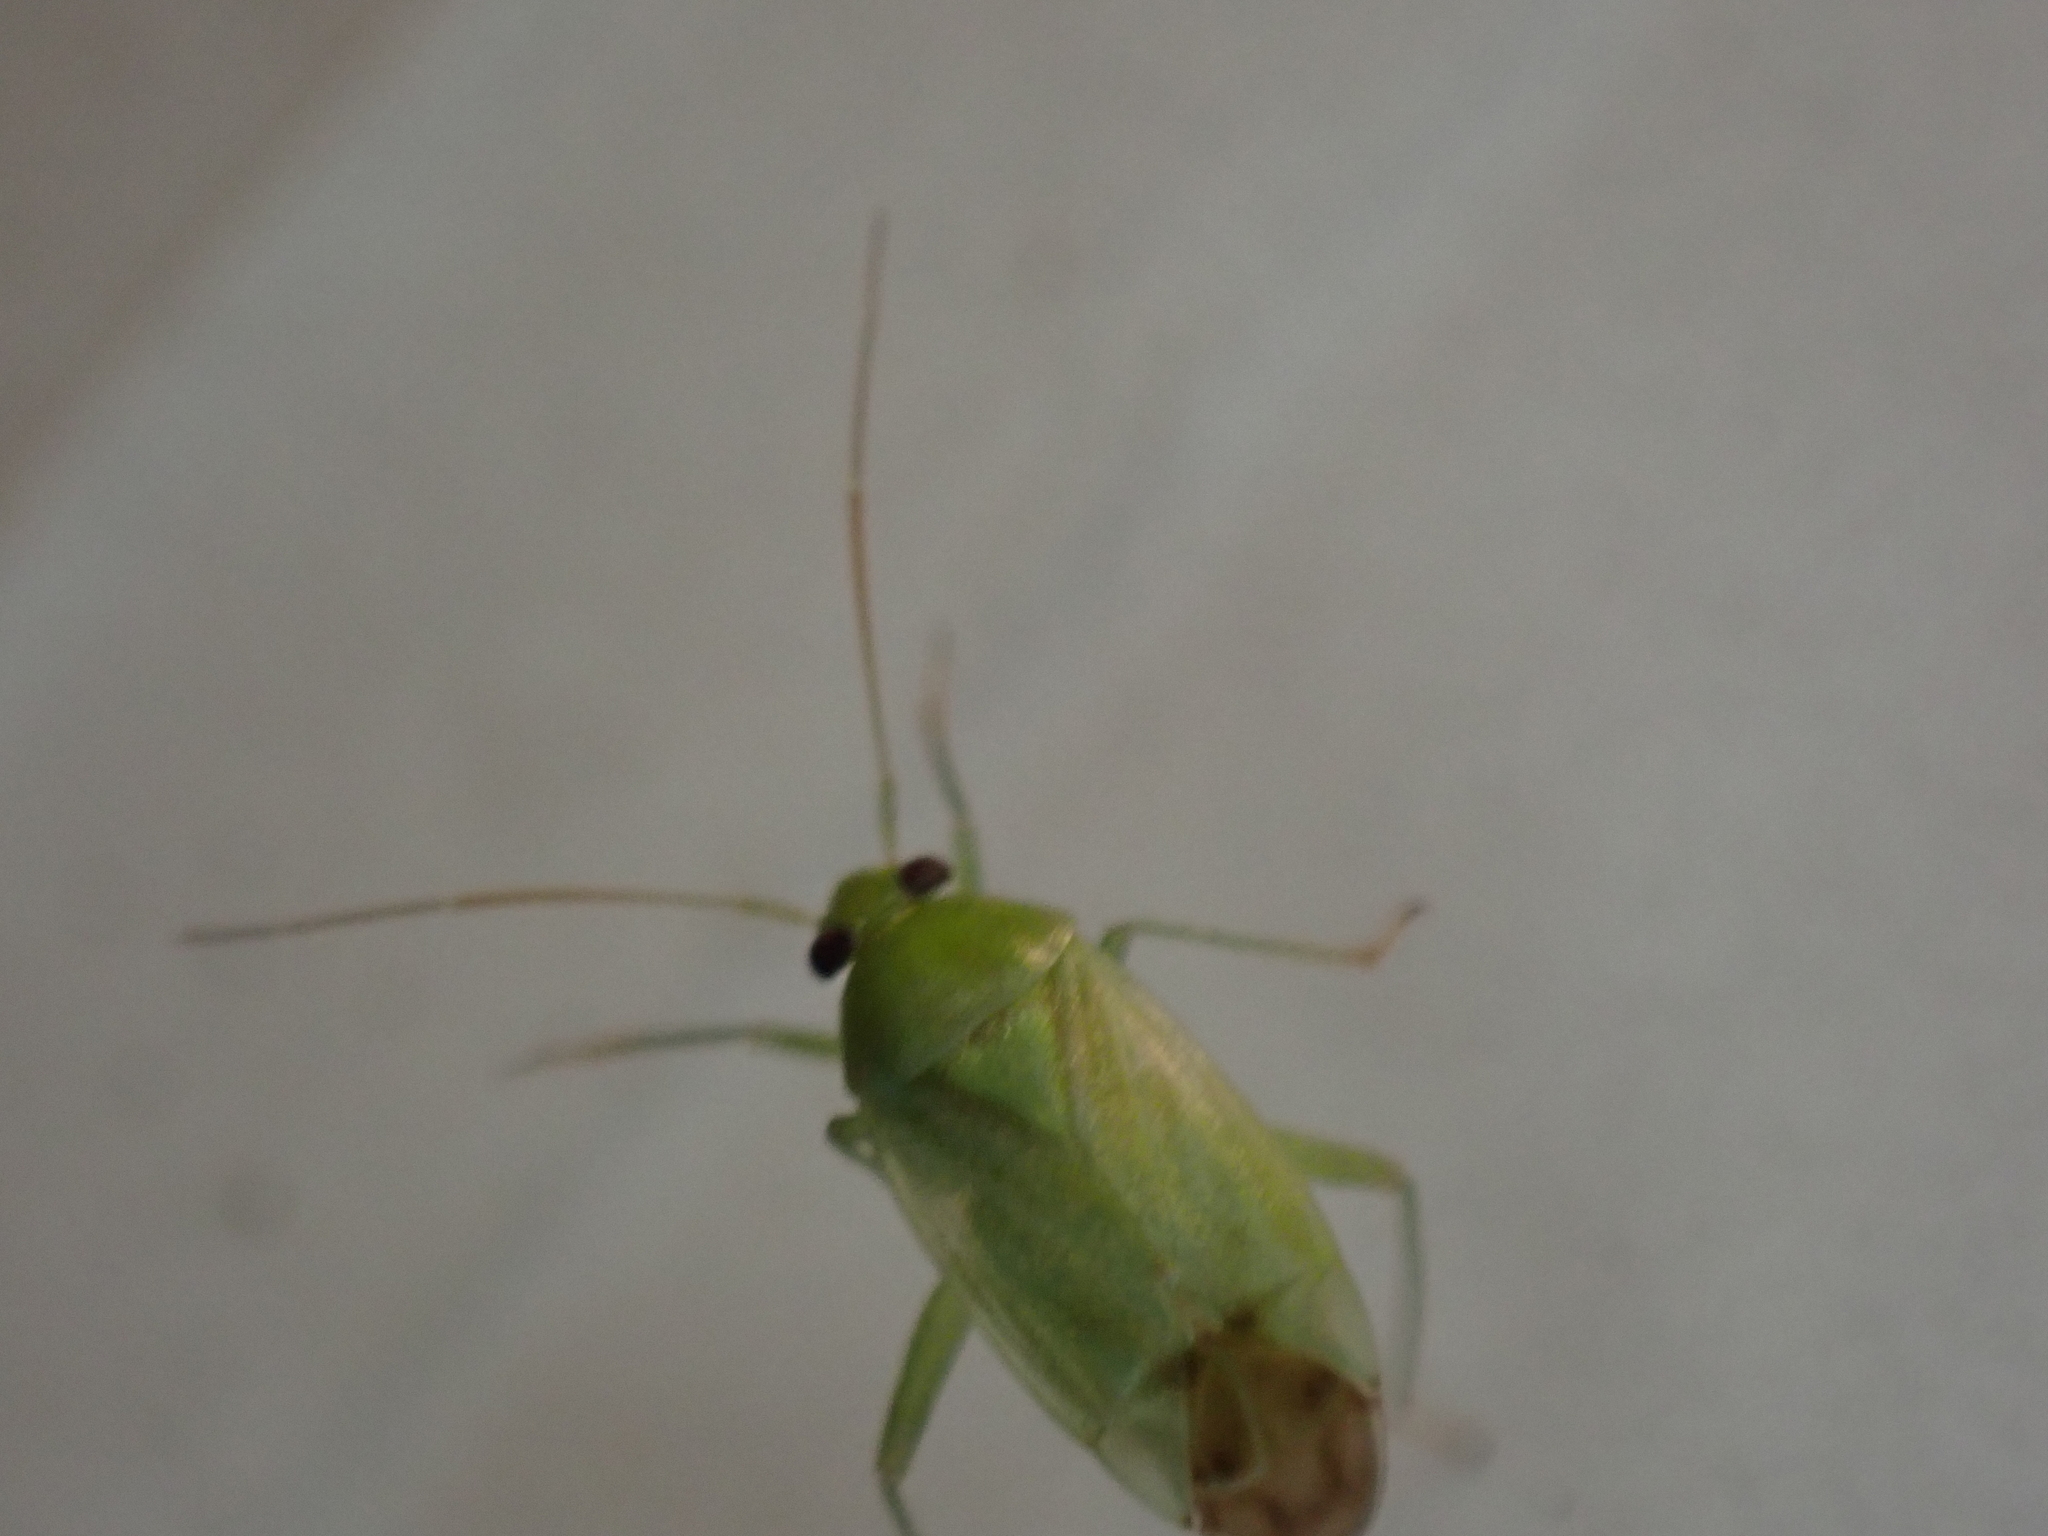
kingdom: Animalia
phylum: Arthropoda
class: Insecta
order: Hemiptera
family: Miridae
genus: Taylorilygus
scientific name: Taylorilygus apicalis
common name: Plant bug
